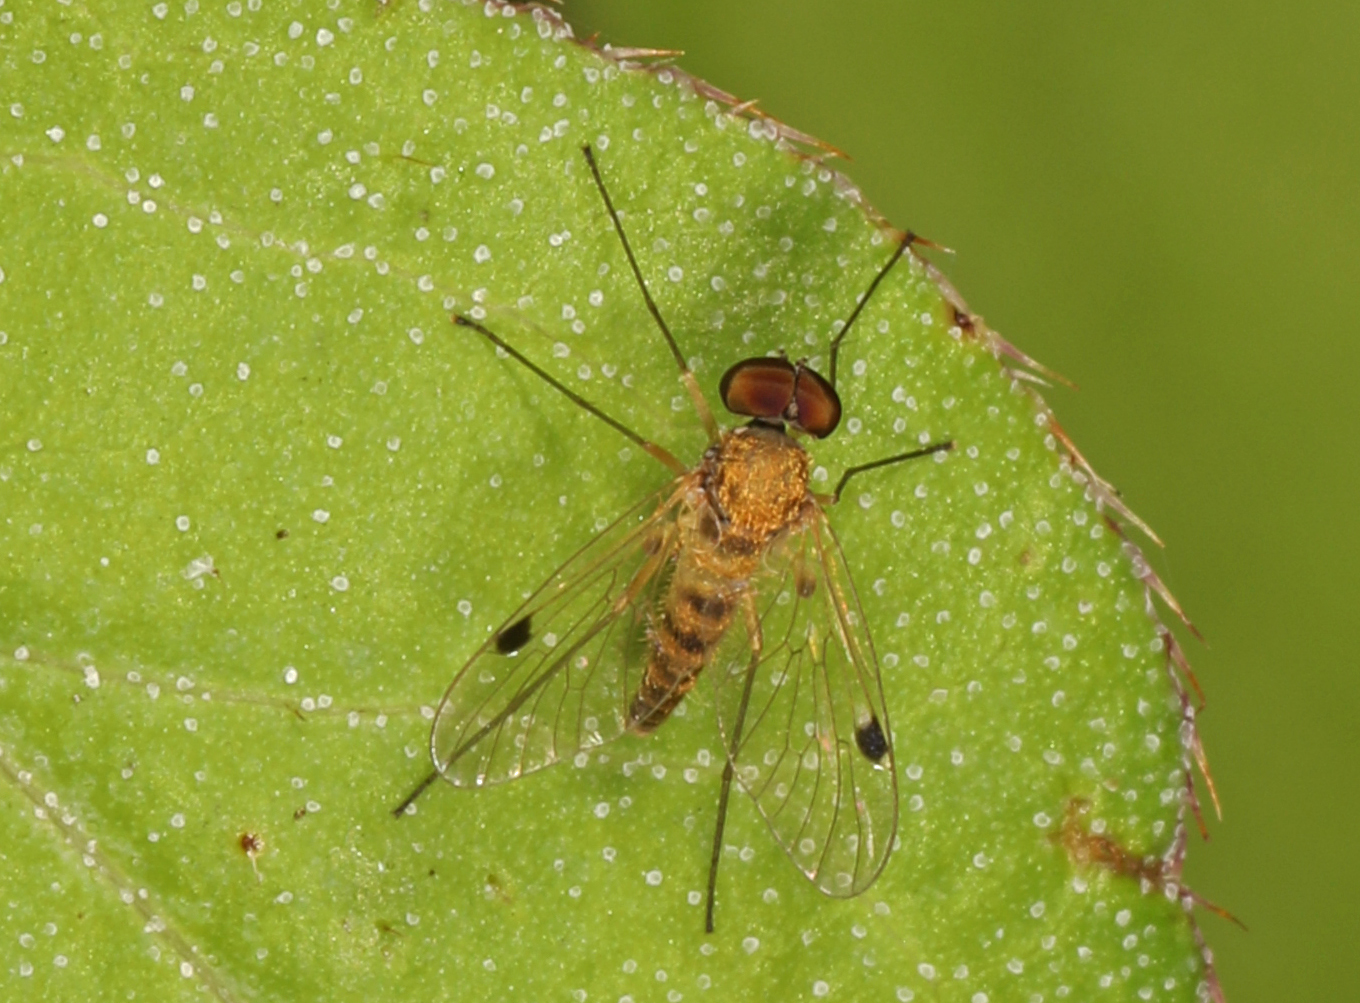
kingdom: Animalia
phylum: Arthropoda
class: Insecta
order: Diptera
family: Rhagionidae
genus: Chrysopilus
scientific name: Chrysopilus modestus
